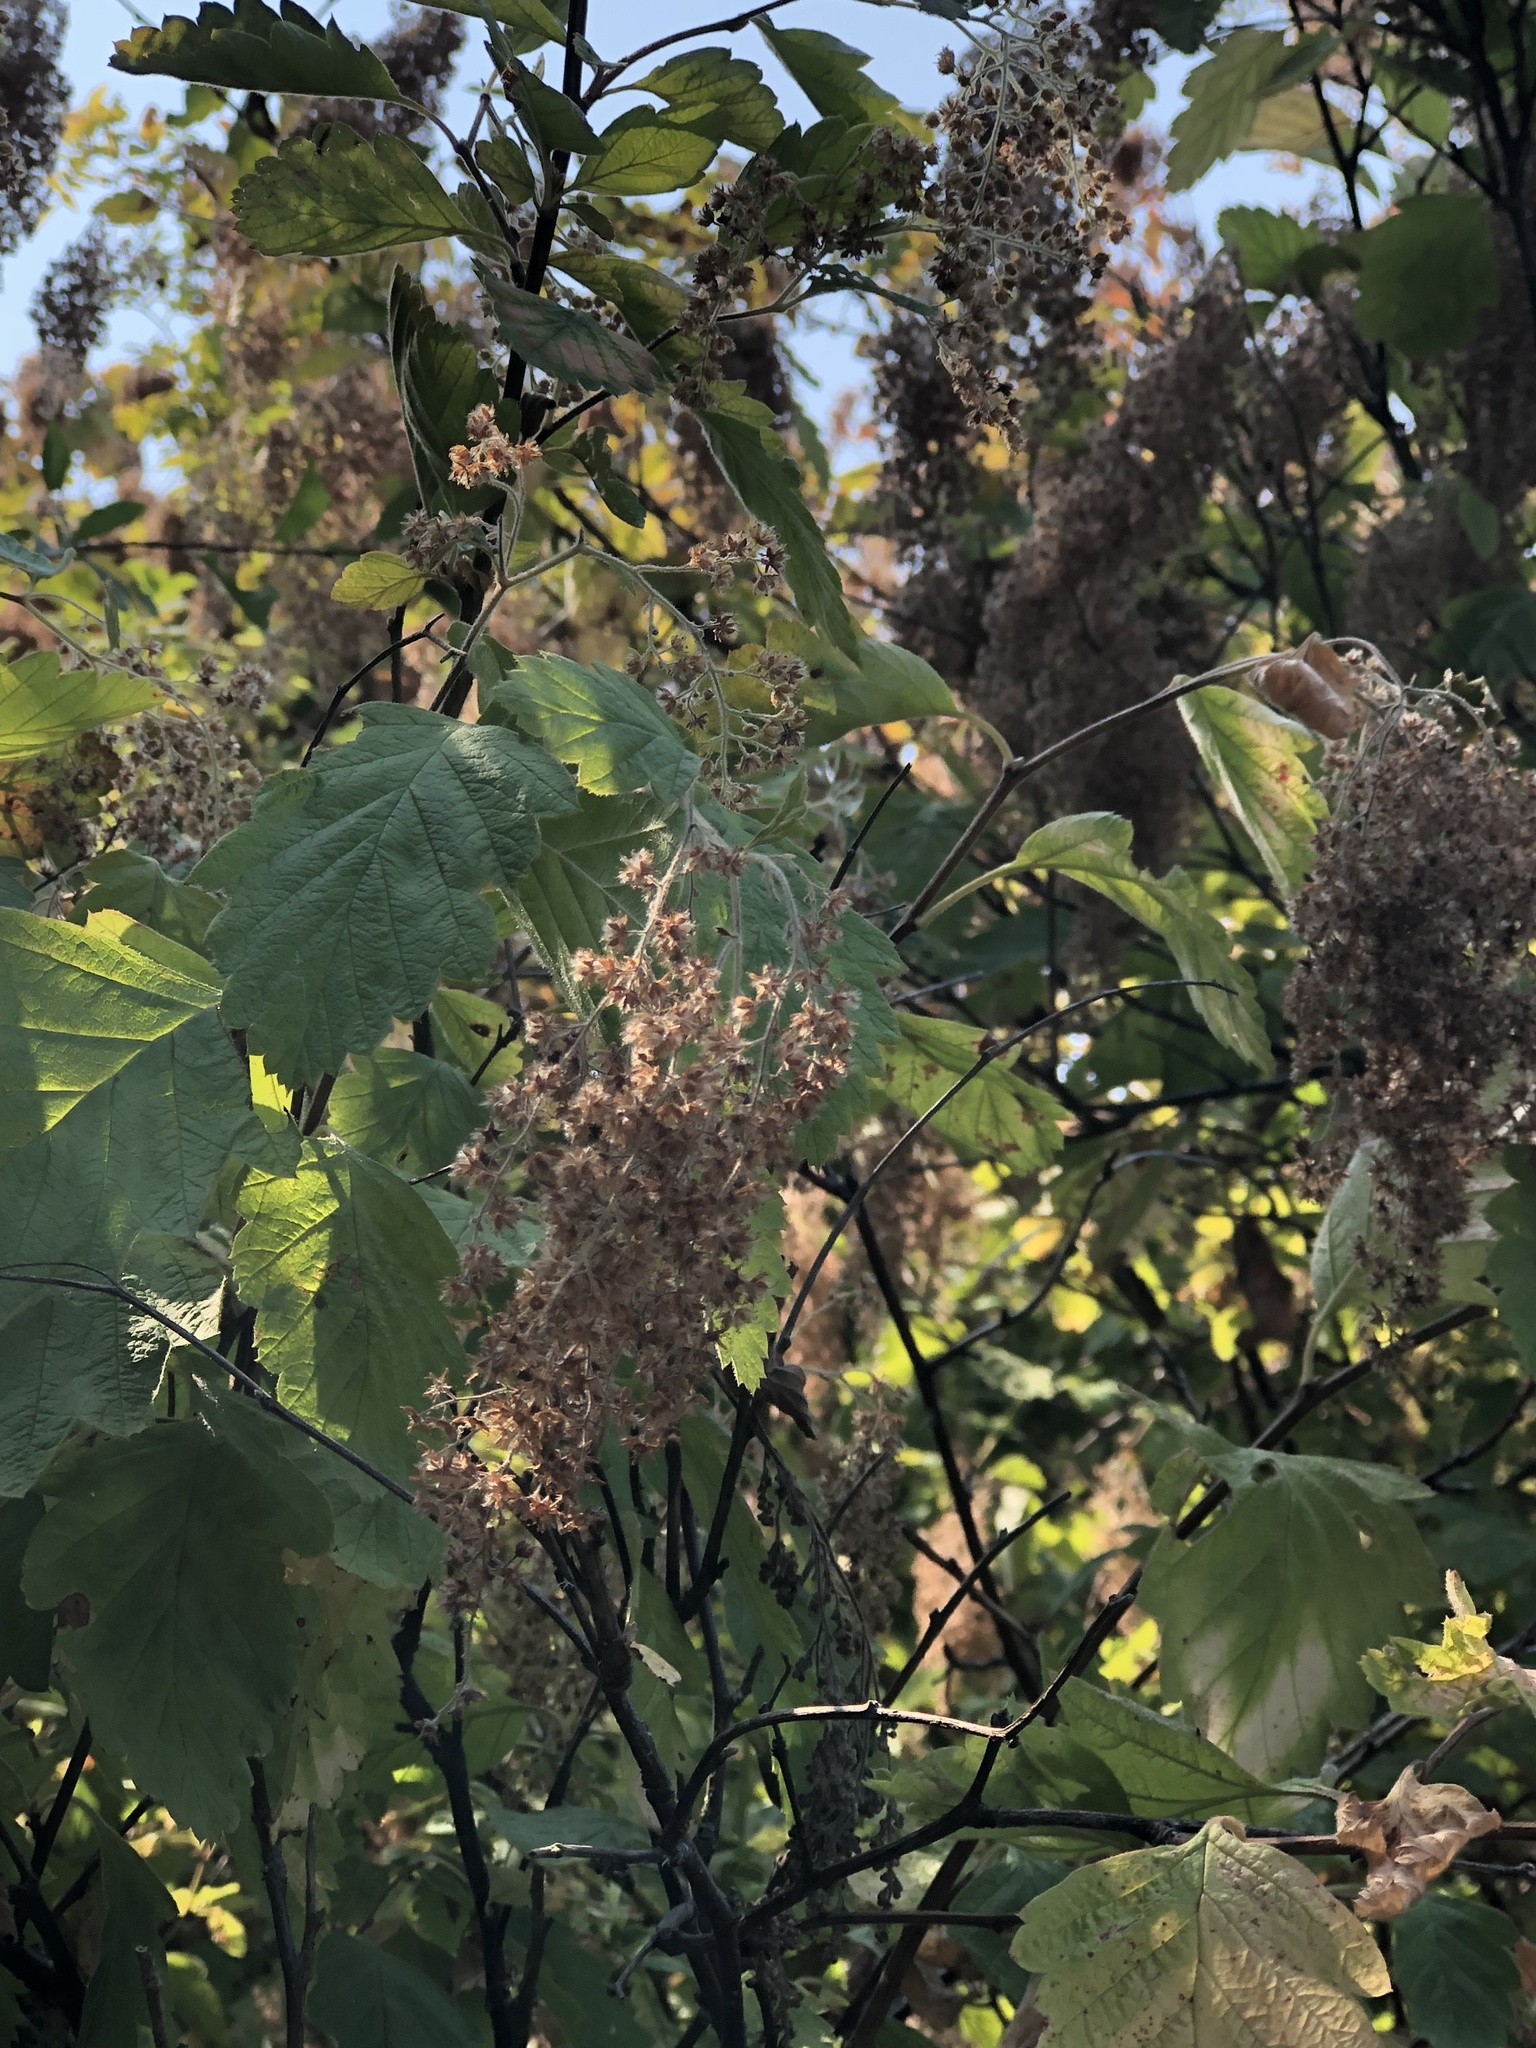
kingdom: Plantae
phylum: Tracheophyta
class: Magnoliopsida
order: Rosales
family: Rosaceae
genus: Holodiscus
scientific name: Holodiscus discolor
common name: Oceanspray
